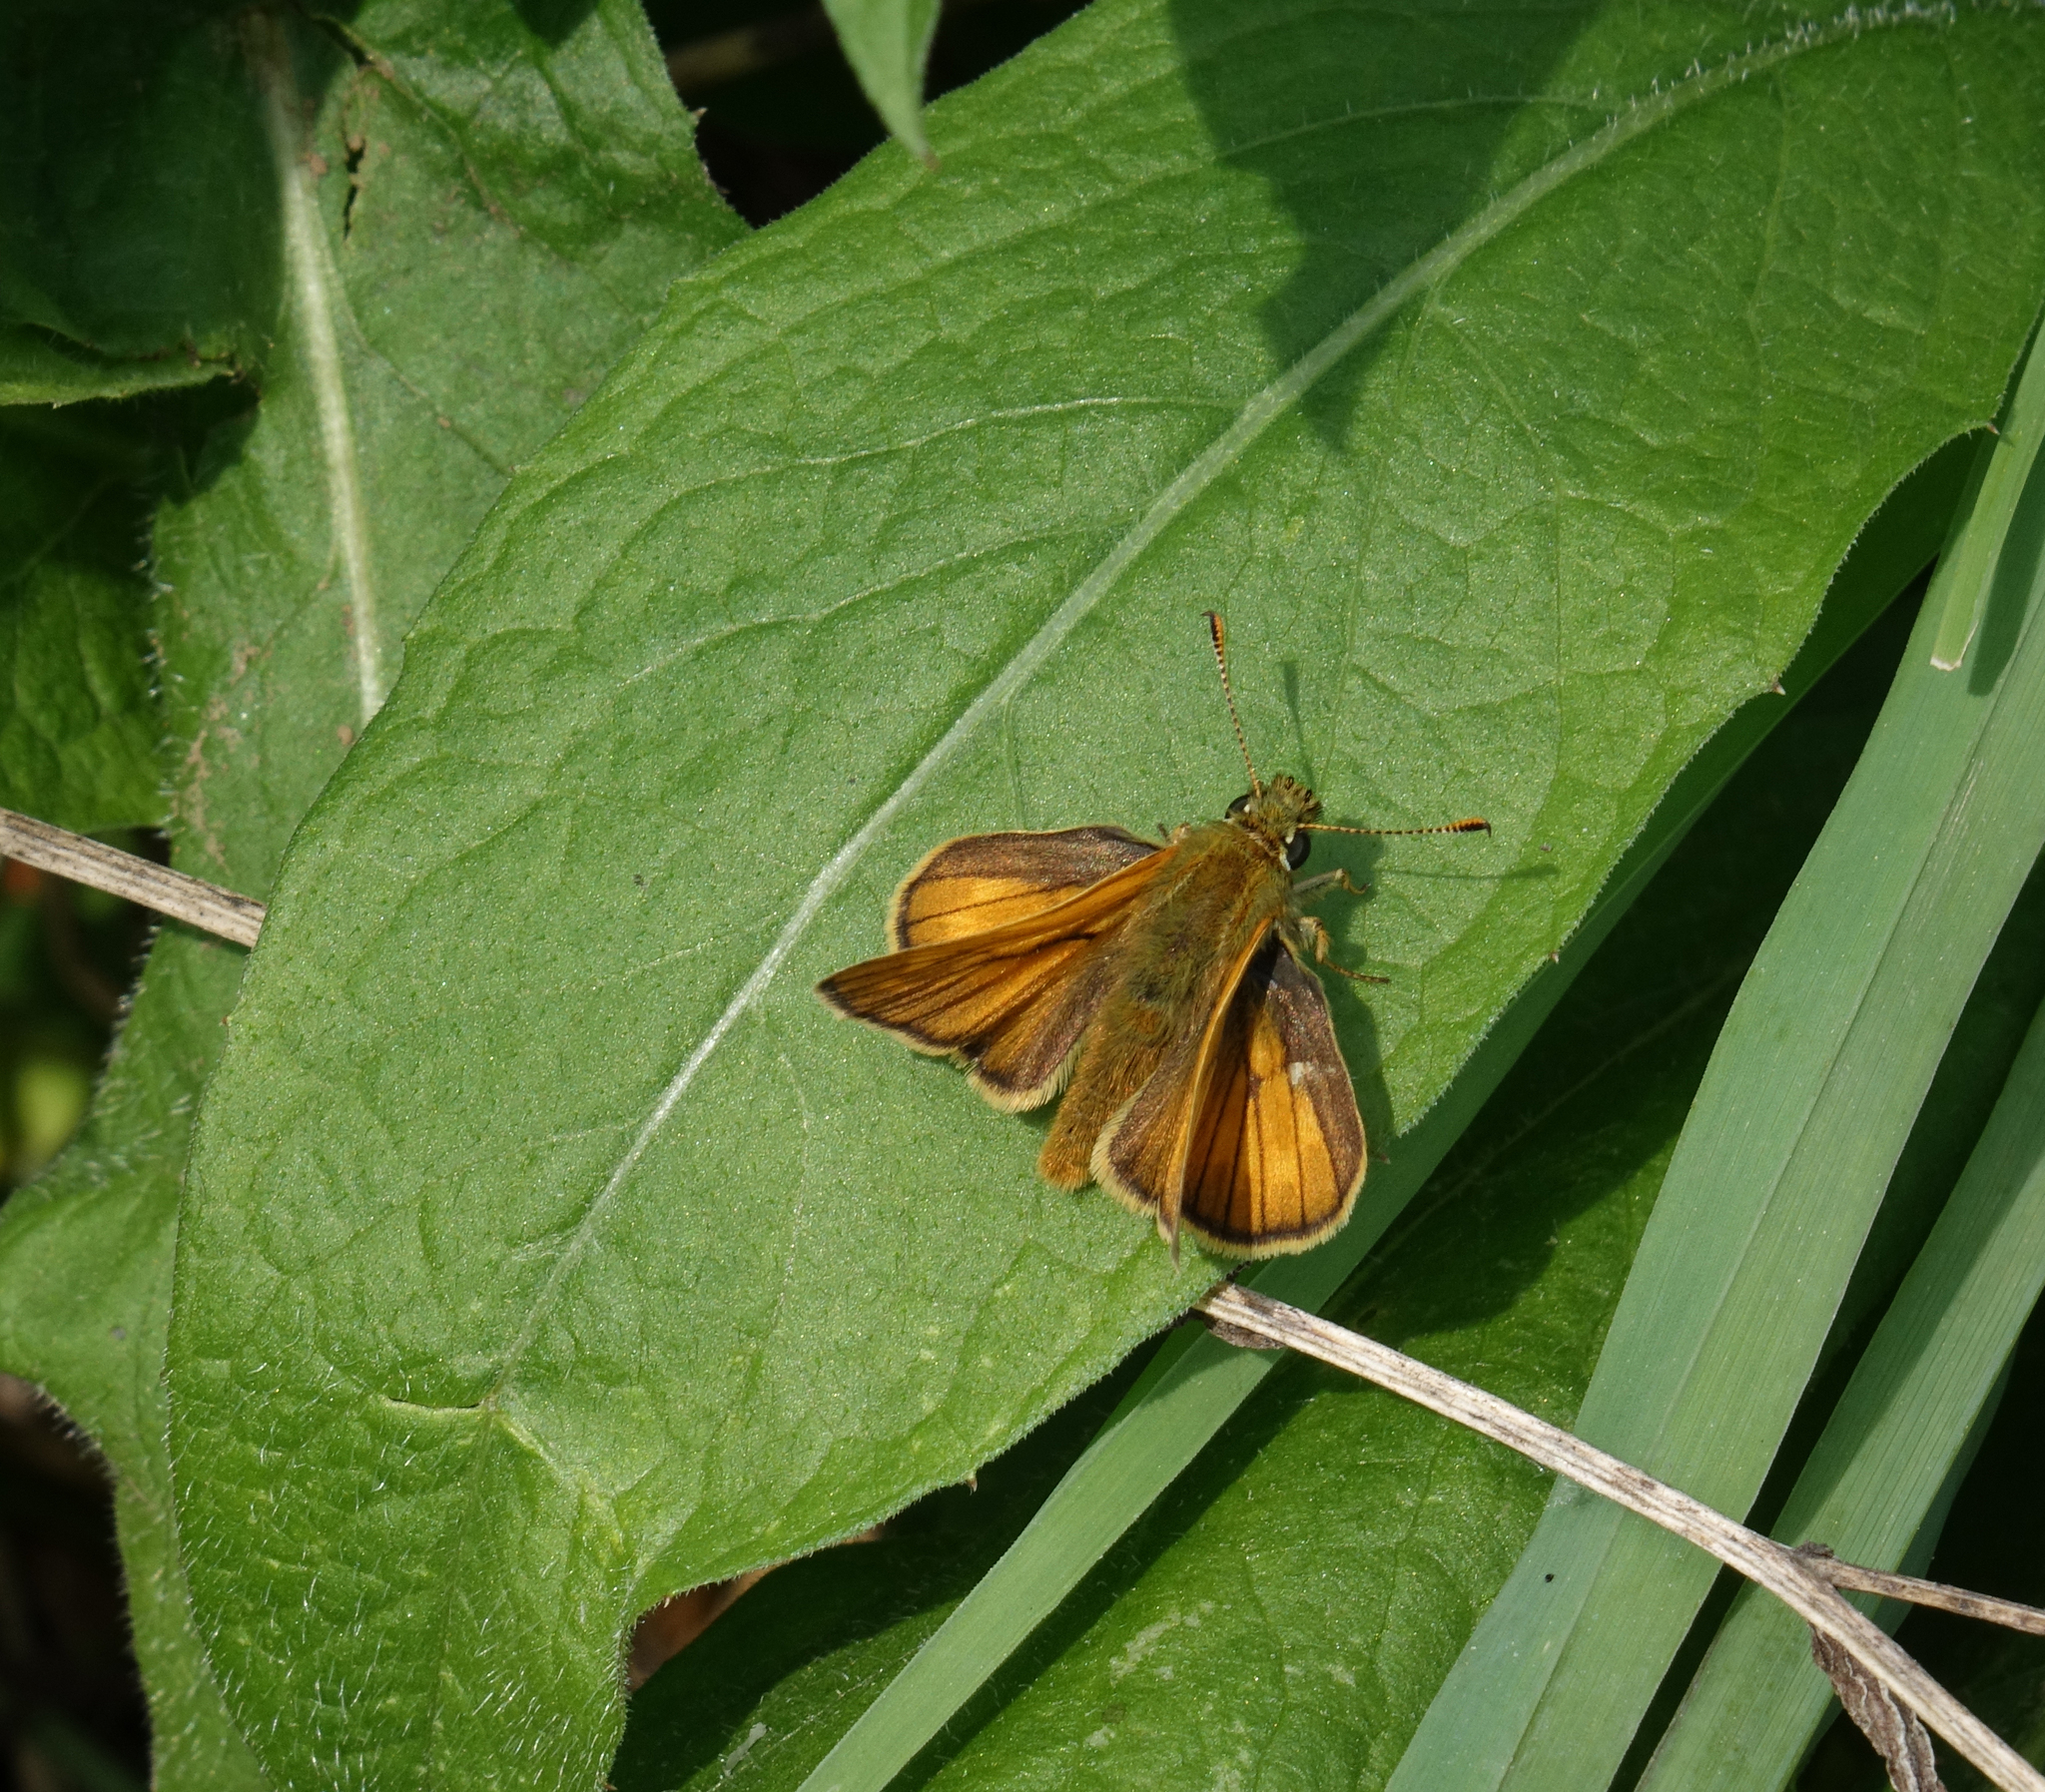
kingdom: Animalia
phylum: Arthropoda
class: Insecta
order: Lepidoptera
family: Hesperiidae
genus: Ochlodes
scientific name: Ochlodes venata
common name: Large skipper
